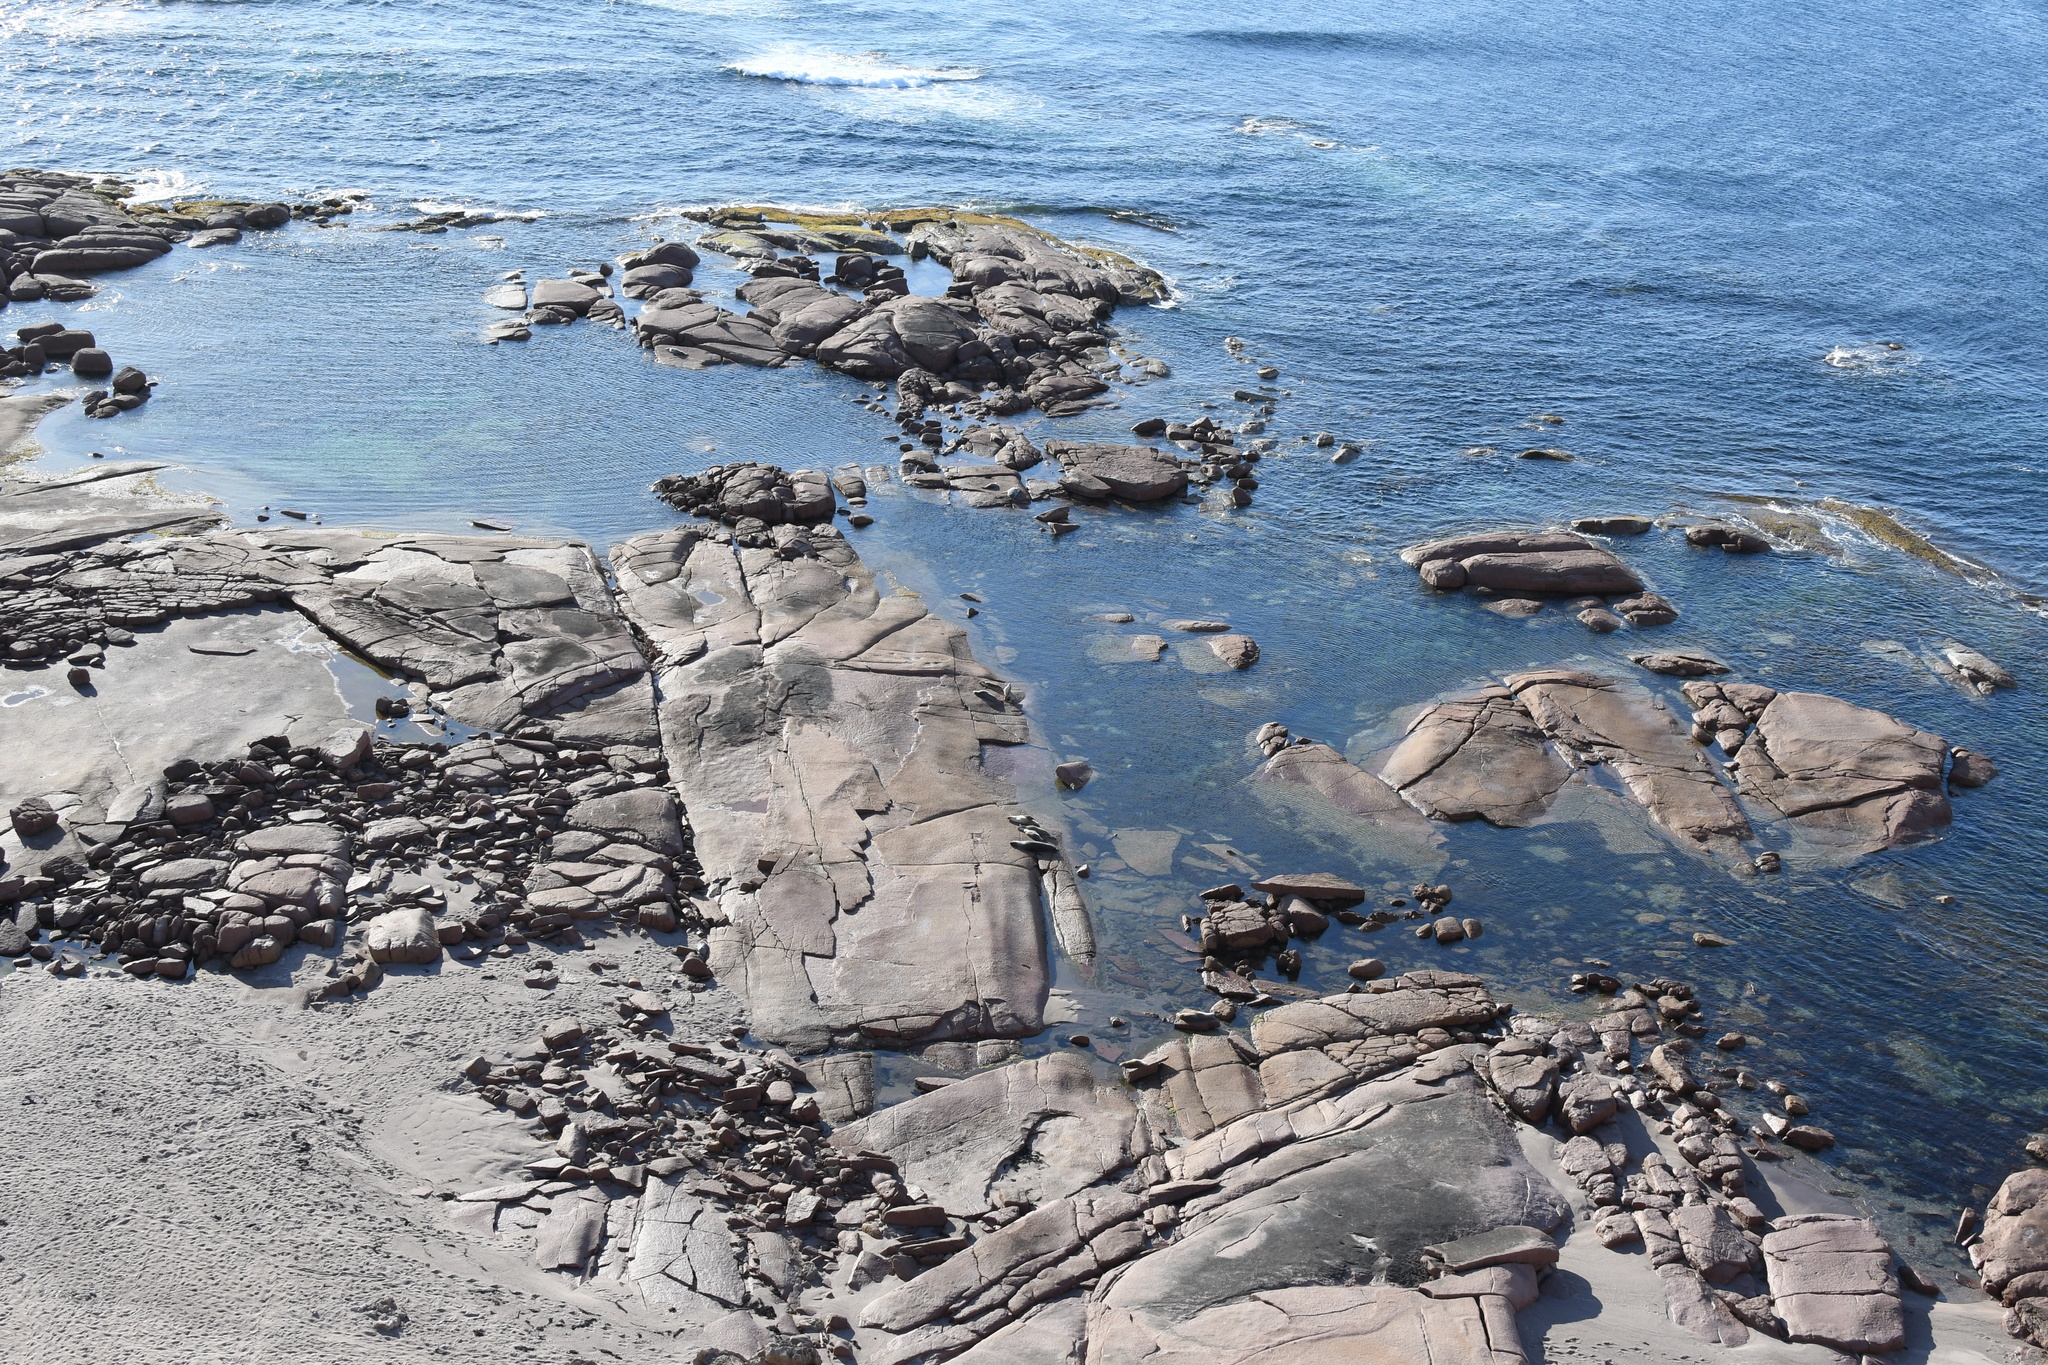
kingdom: Animalia
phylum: Chordata
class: Mammalia
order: Carnivora
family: Otariidae
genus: Neophoca
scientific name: Neophoca cinerea
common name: Australian sea lion
